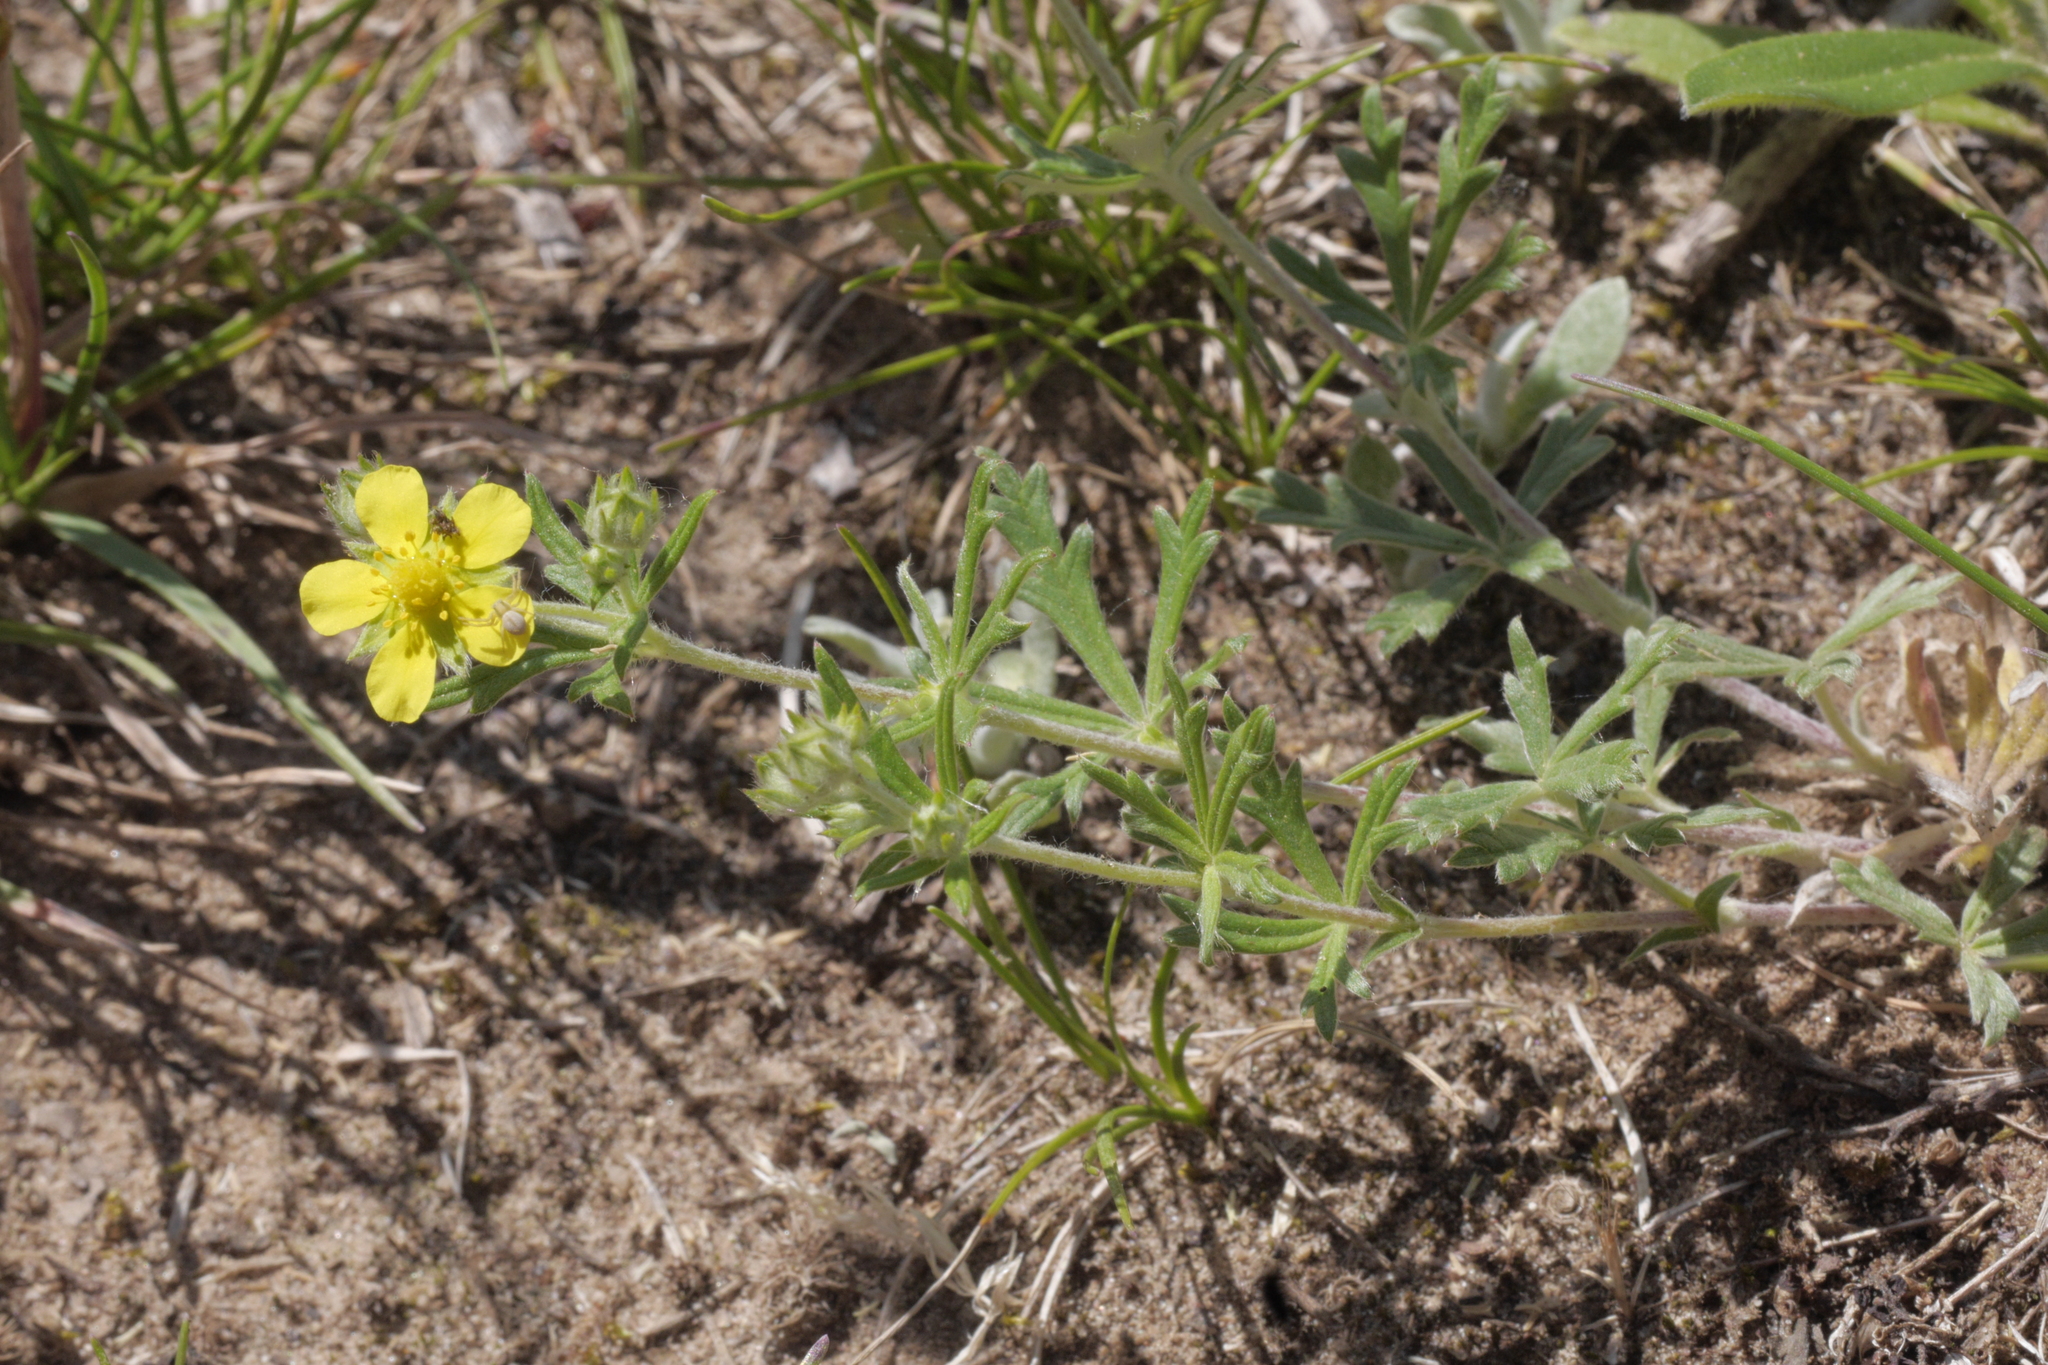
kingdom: Plantae
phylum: Tracheophyta
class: Magnoliopsida
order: Rosales
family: Rosaceae
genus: Potentilla
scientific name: Potentilla argentea
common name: Hoary cinquefoil
